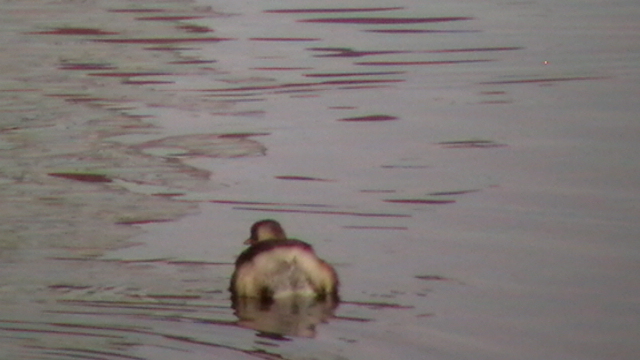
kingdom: Animalia
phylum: Chordata
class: Aves
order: Podicipediformes
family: Podicipedidae
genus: Tachybaptus
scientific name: Tachybaptus ruficollis
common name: Little grebe
